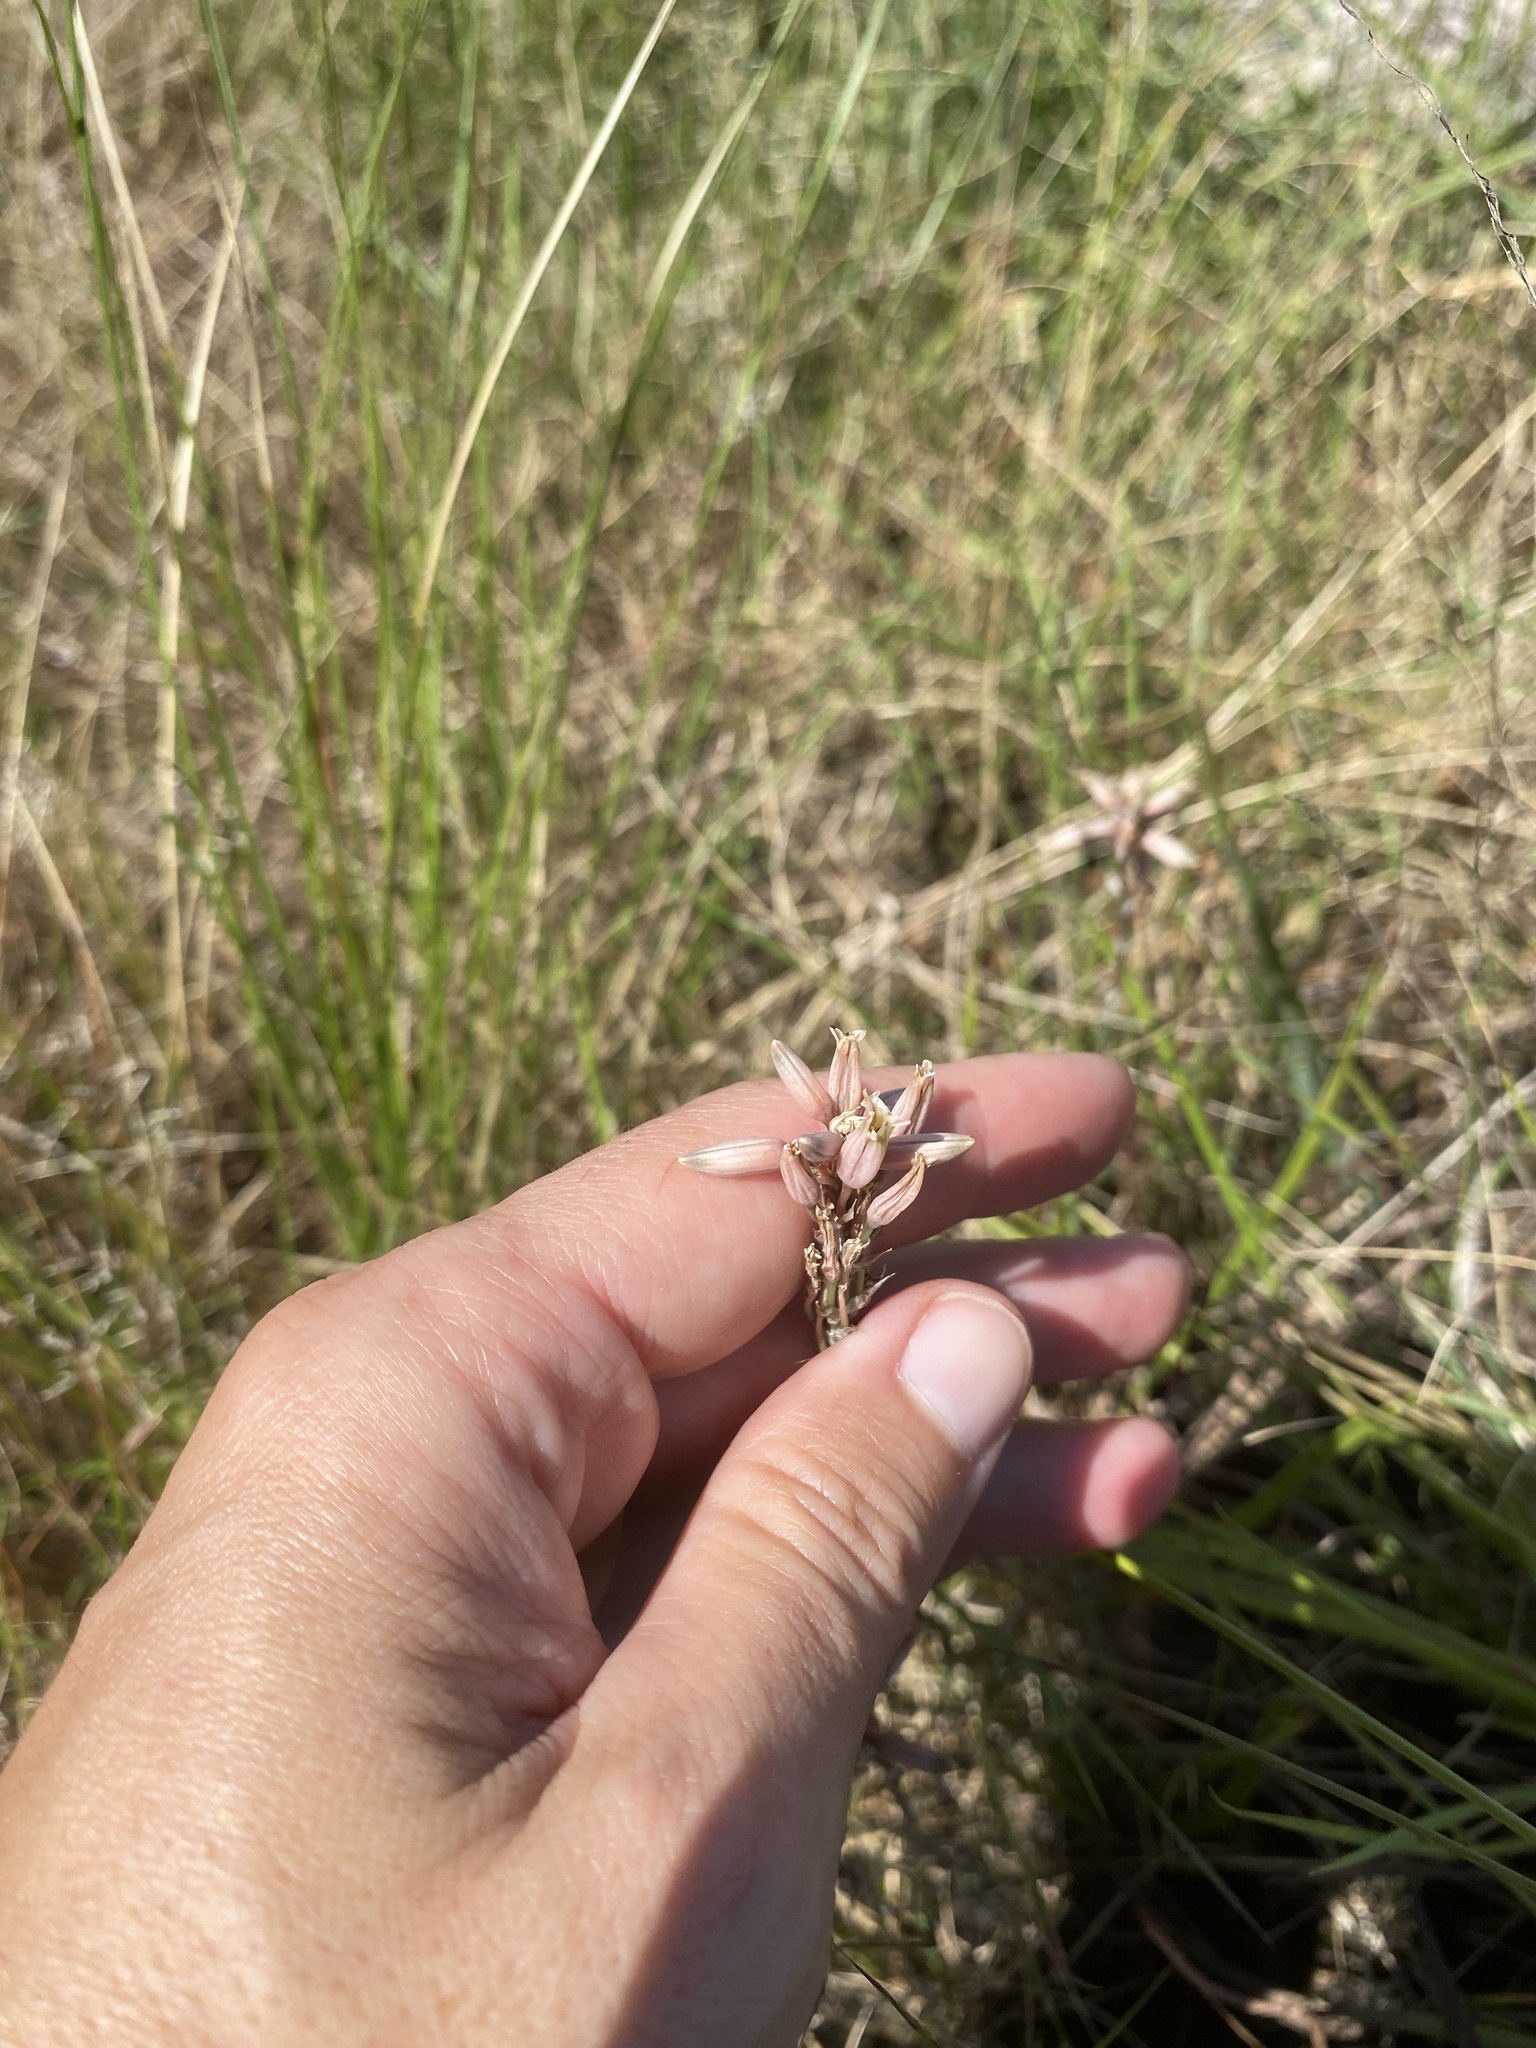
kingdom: Plantae
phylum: Tracheophyta
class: Liliopsida
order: Asparagales
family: Asphodelaceae
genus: Aloe
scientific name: Aloe saundersiae
